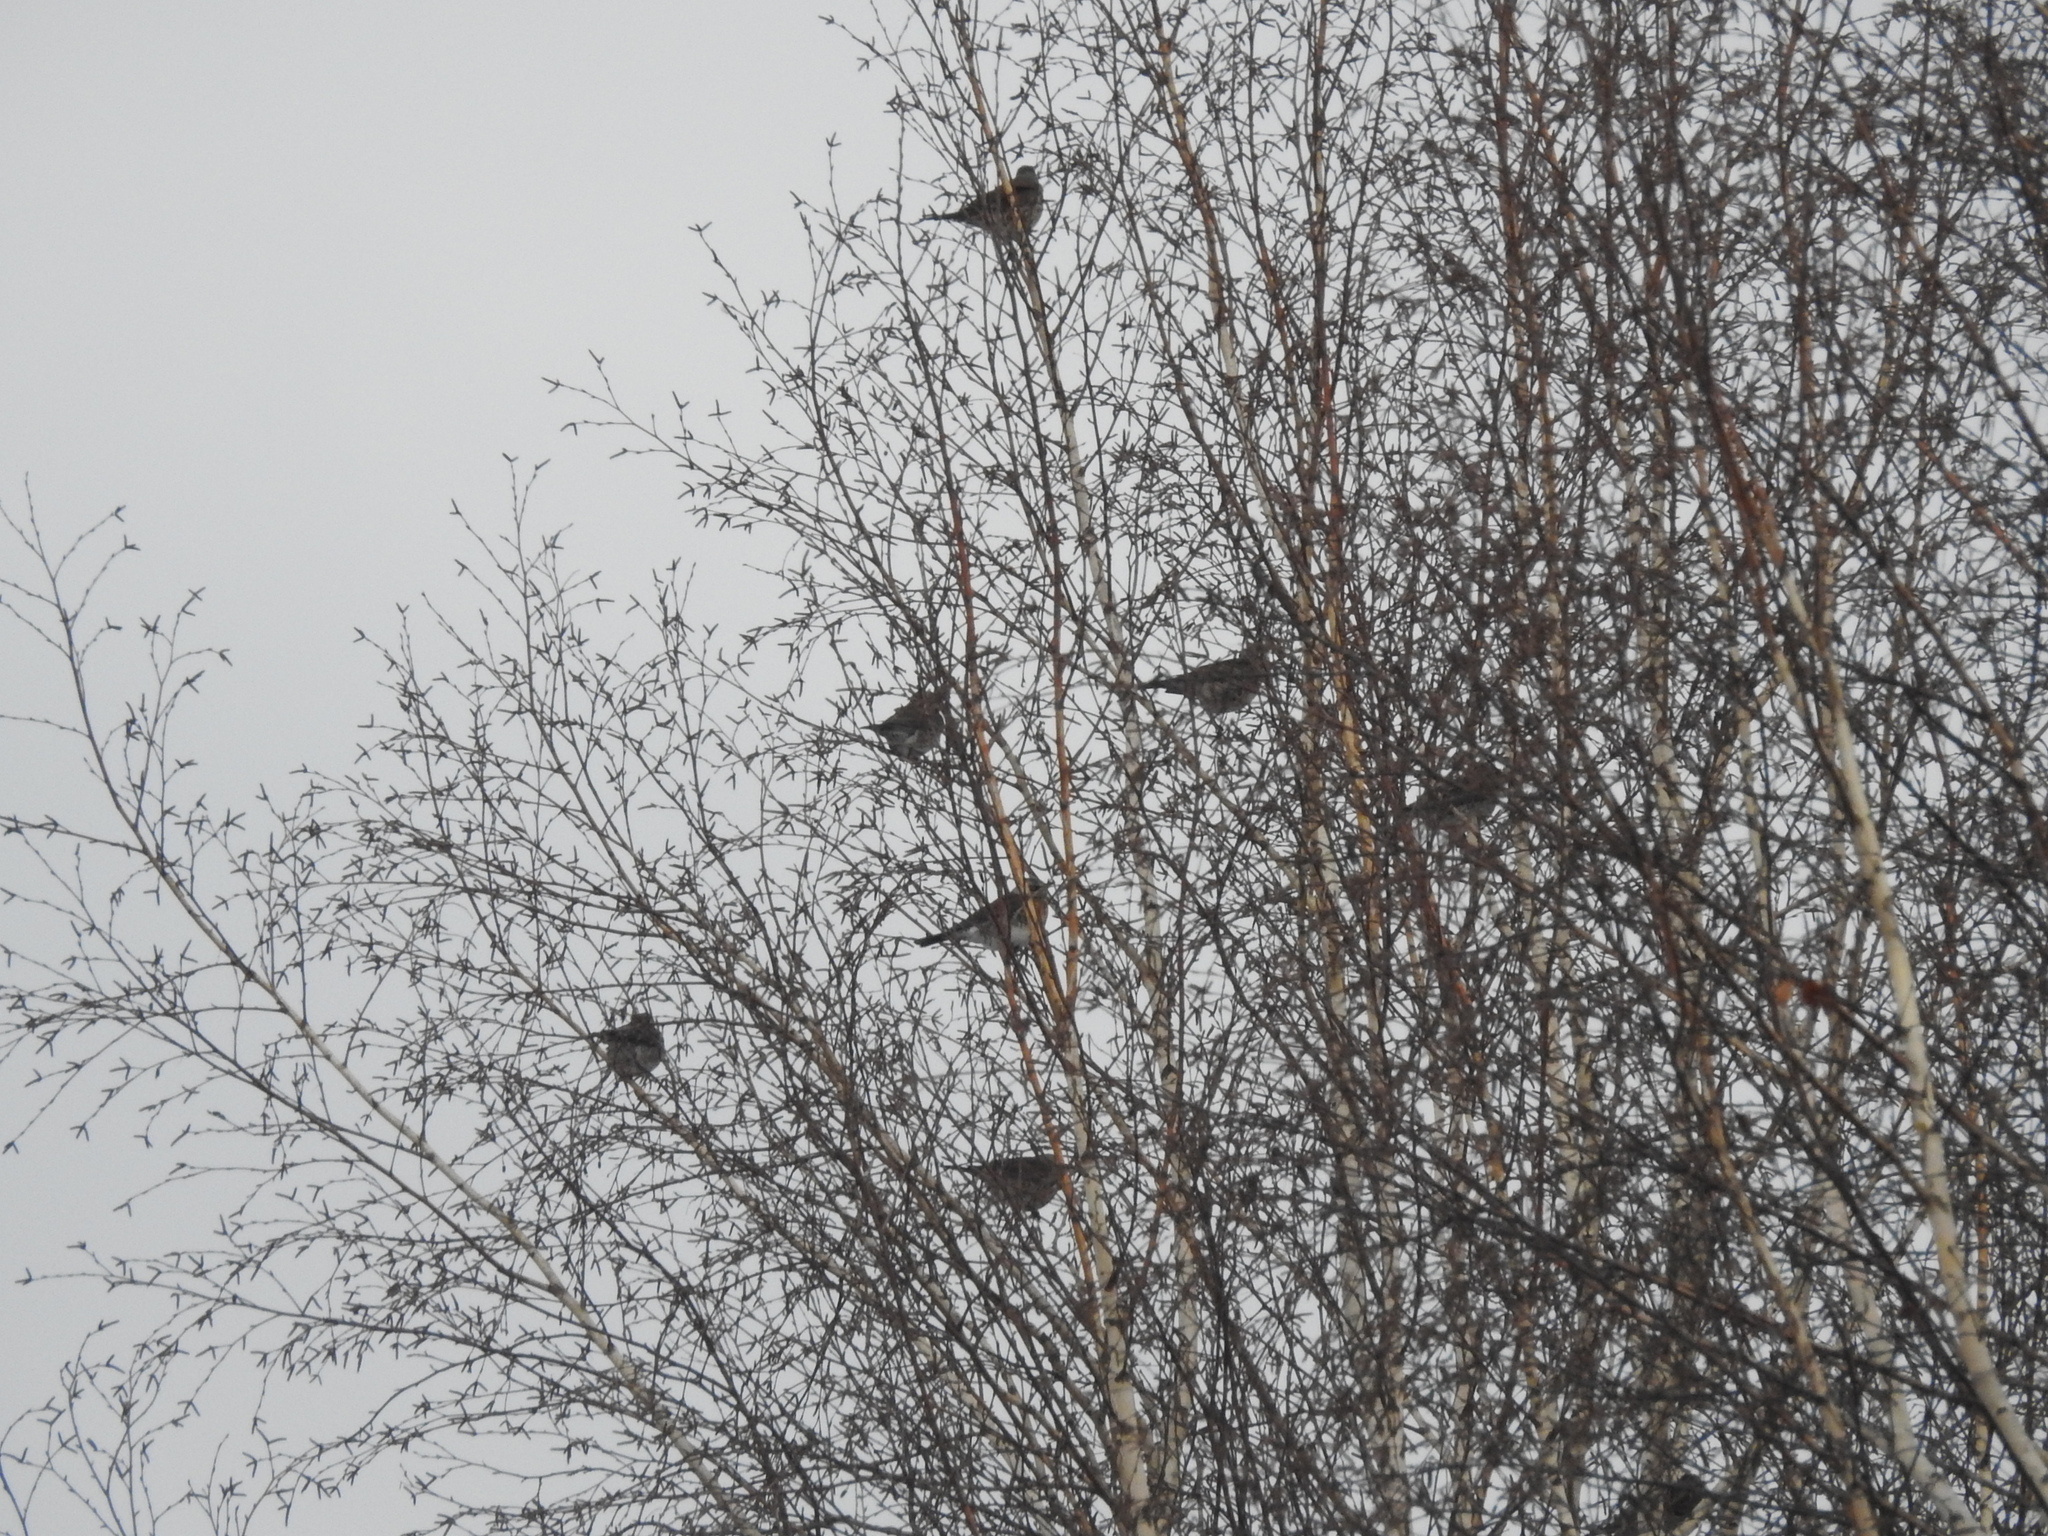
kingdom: Animalia
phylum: Chordata
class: Aves
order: Passeriformes
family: Turdidae
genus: Turdus
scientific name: Turdus pilaris
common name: Fieldfare
